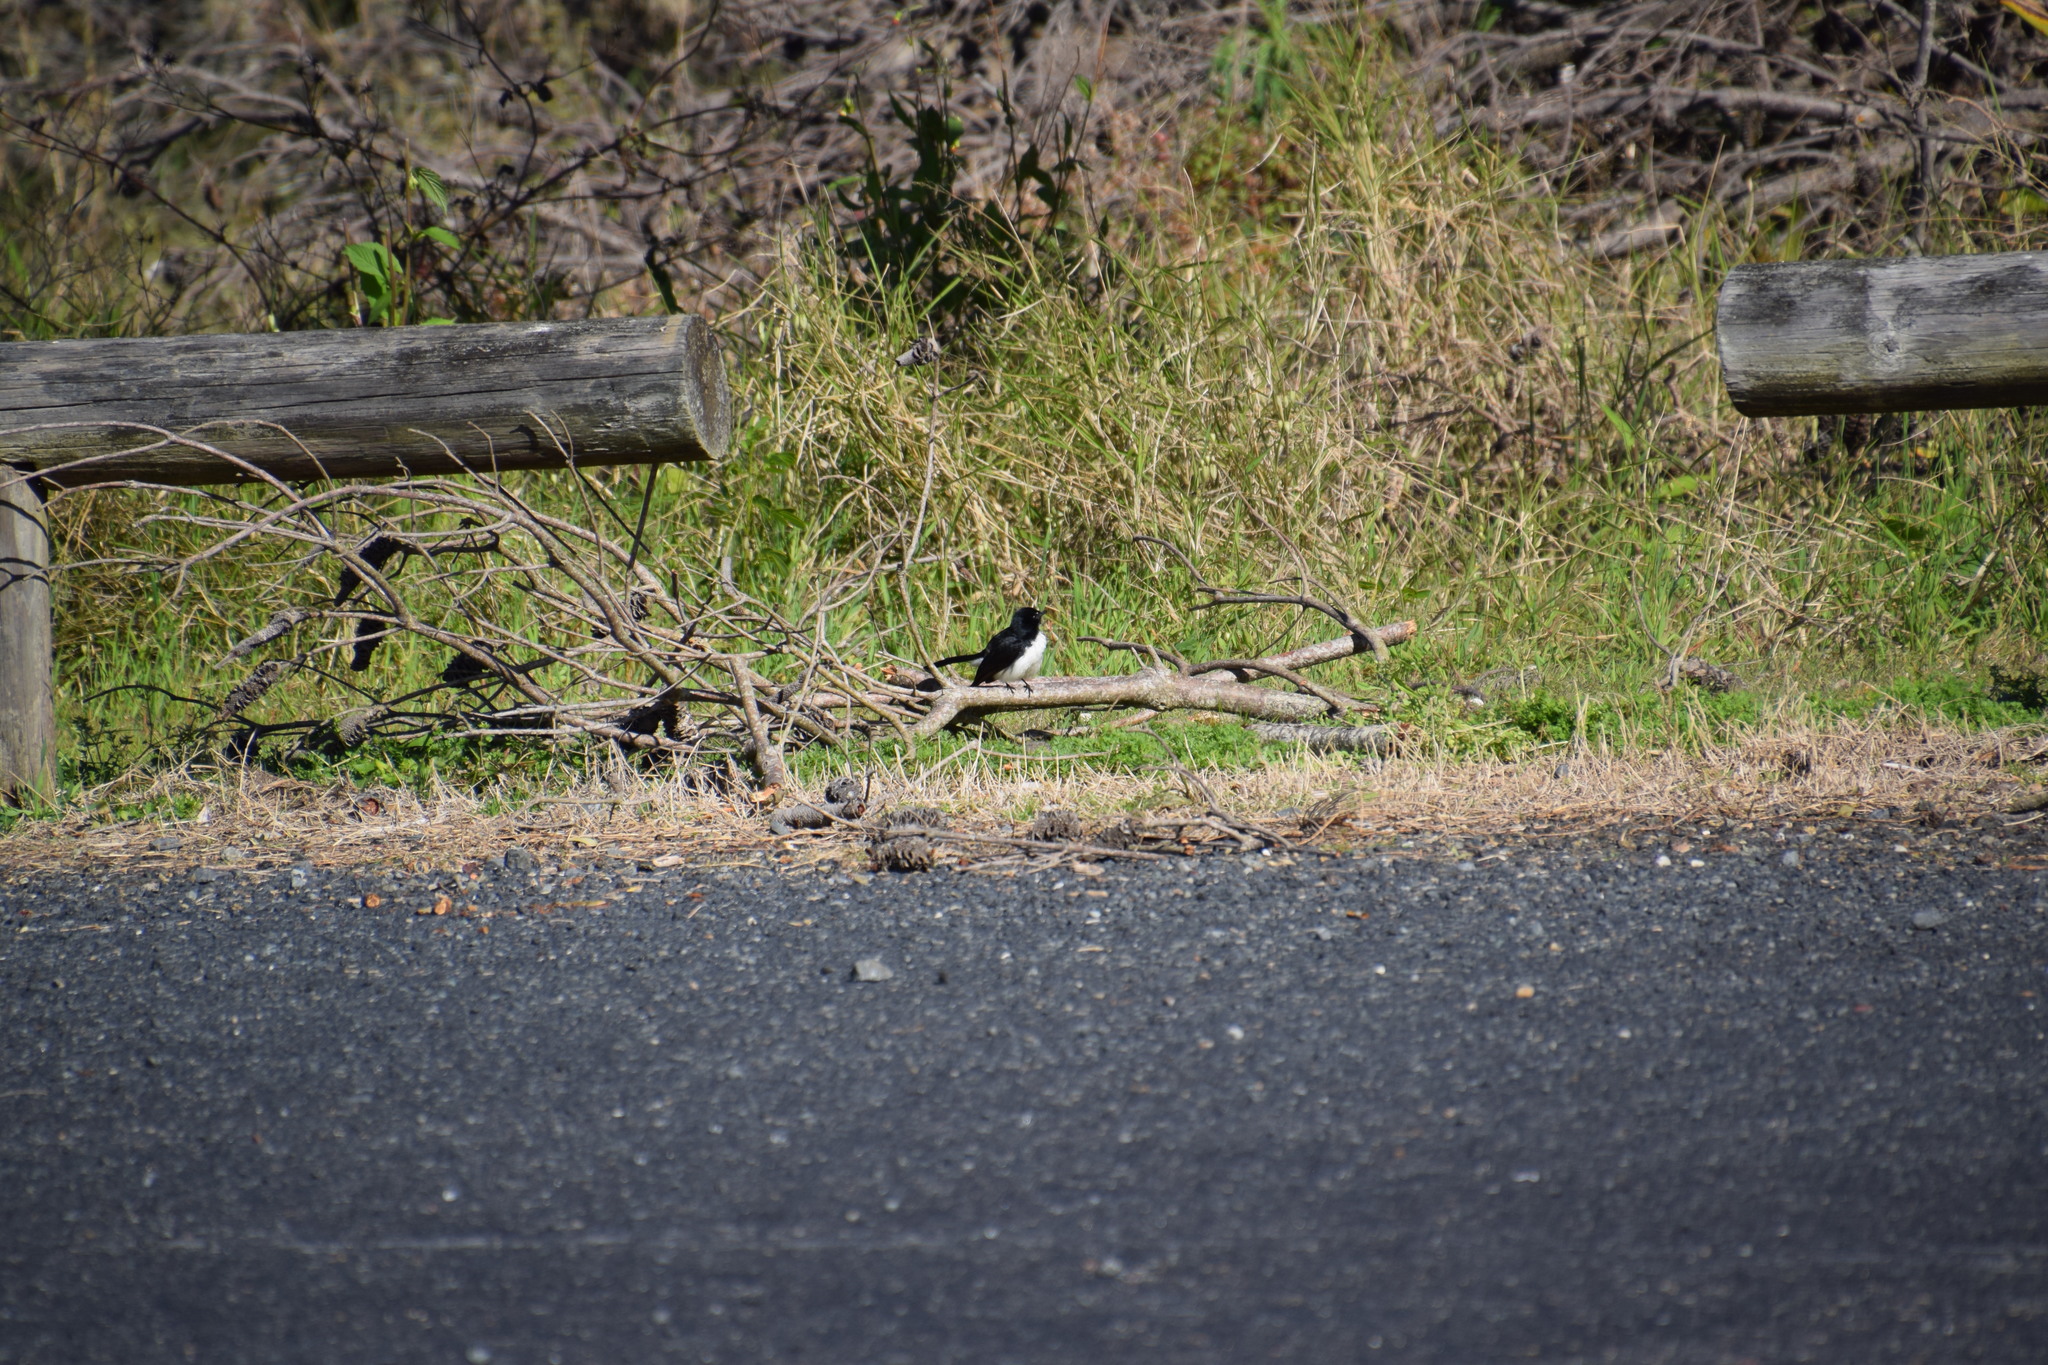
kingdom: Animalia
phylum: Chordata
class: Aves
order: Passeriformes
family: Rhipiduridae
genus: Rhipidura
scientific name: Rhipidura leucophrys
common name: Willie wagtail
